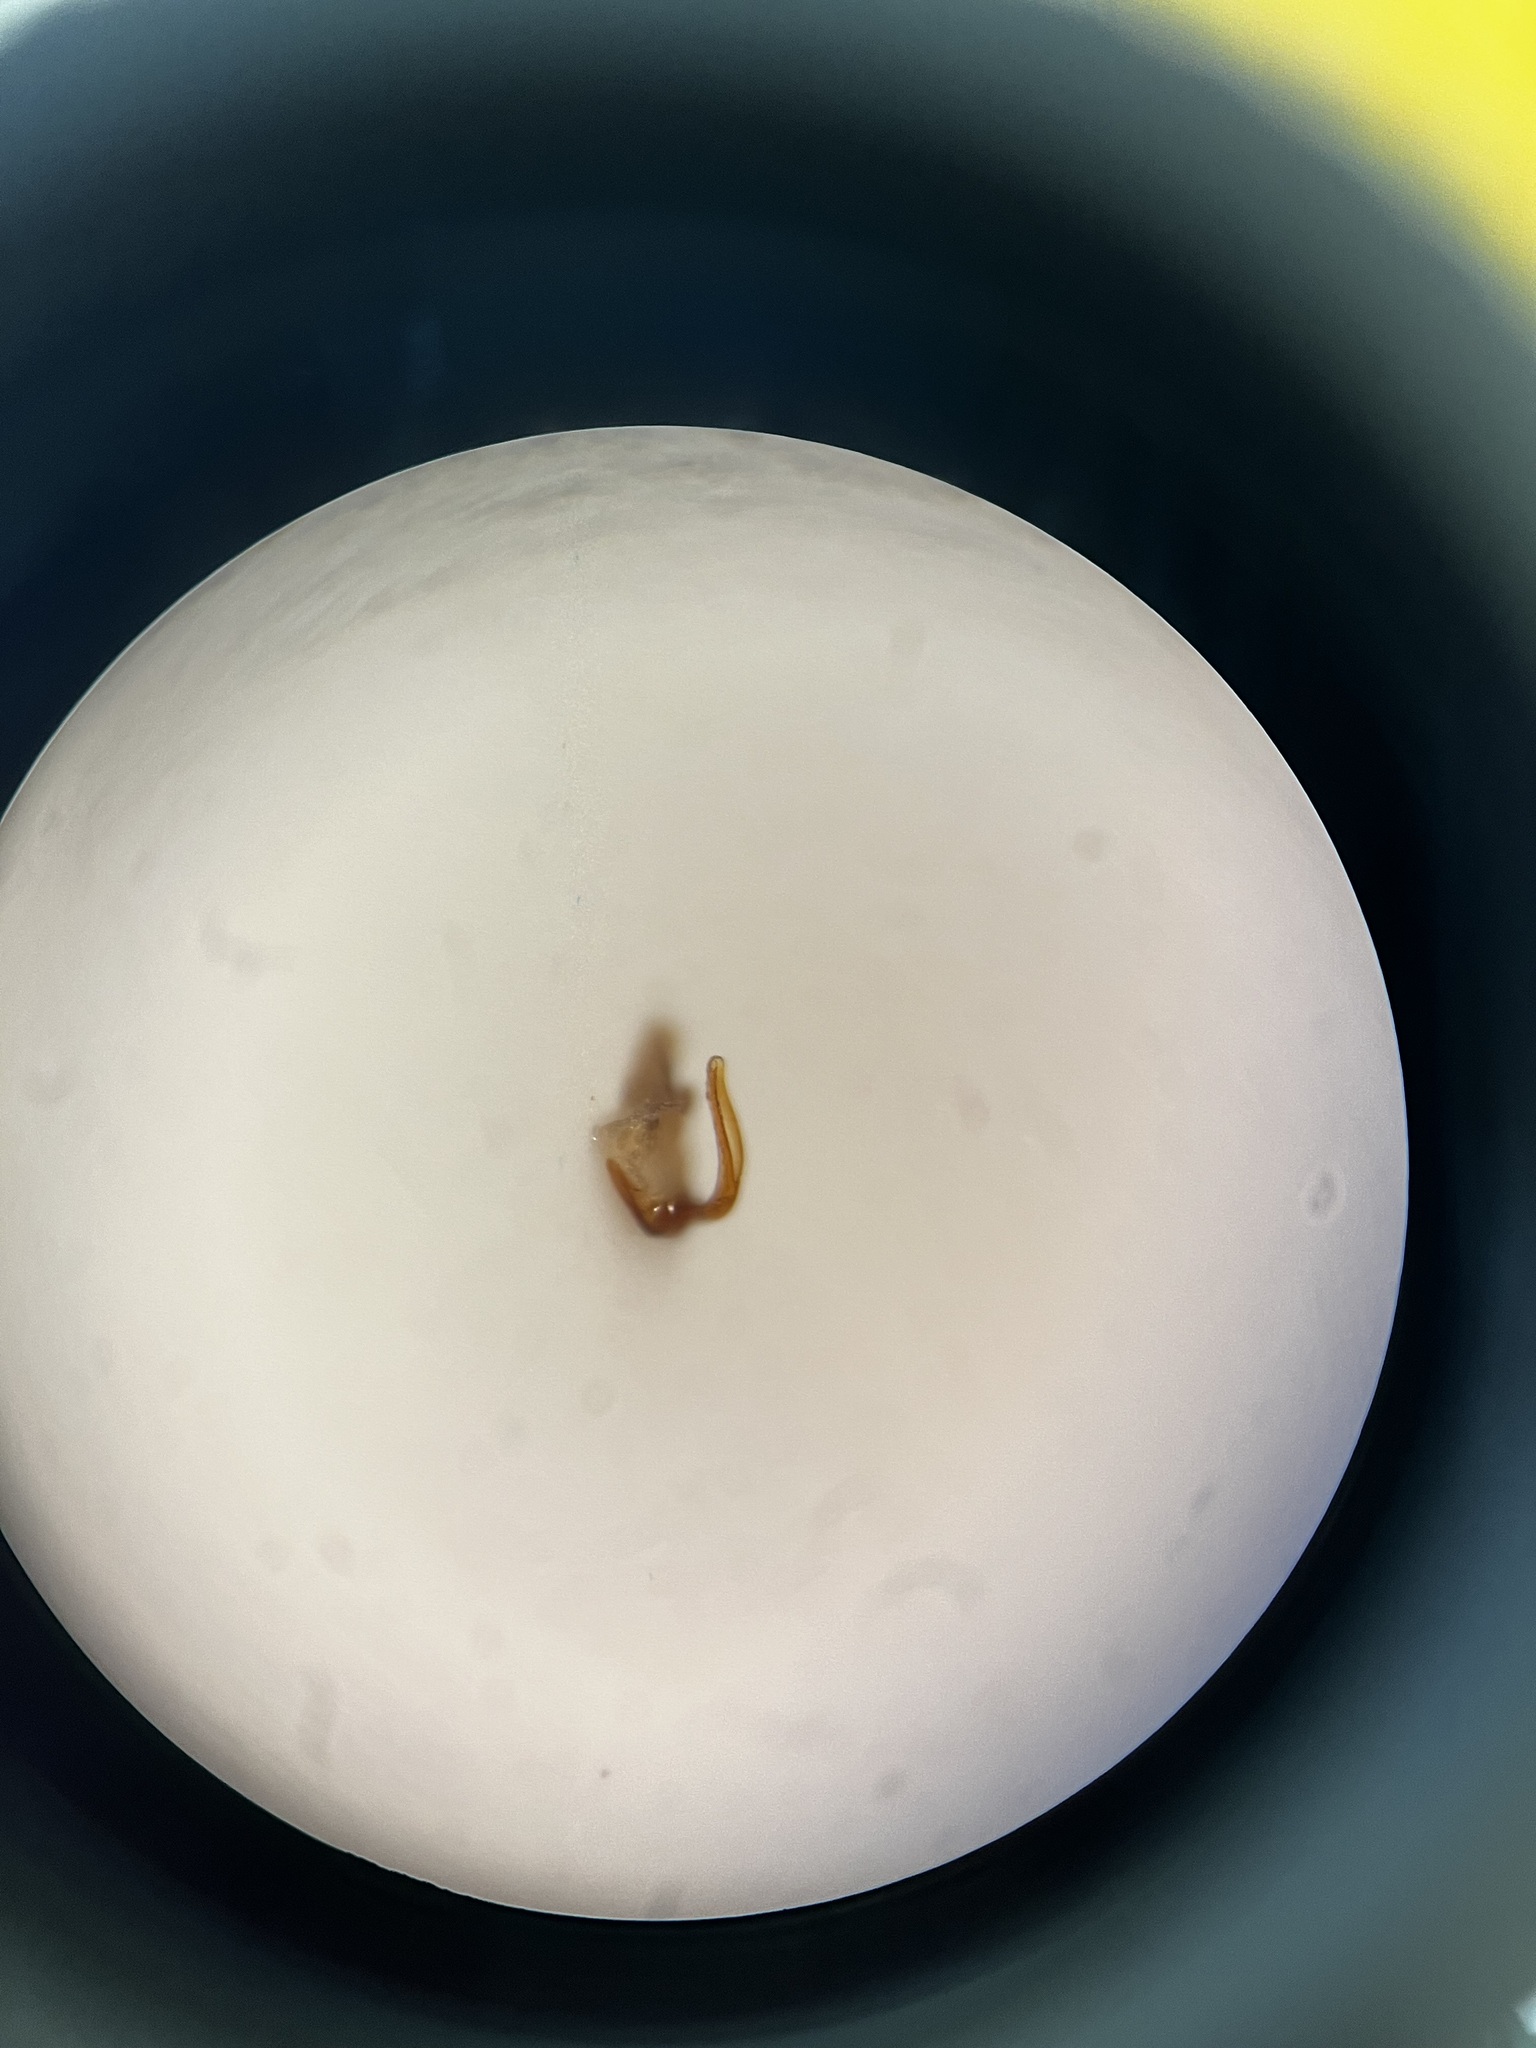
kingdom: Animalia
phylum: Arthropoda
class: Insecta
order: Hemiptera
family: Cicadellidae
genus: Psammotettix
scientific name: Psammotettix kolosvarensis
